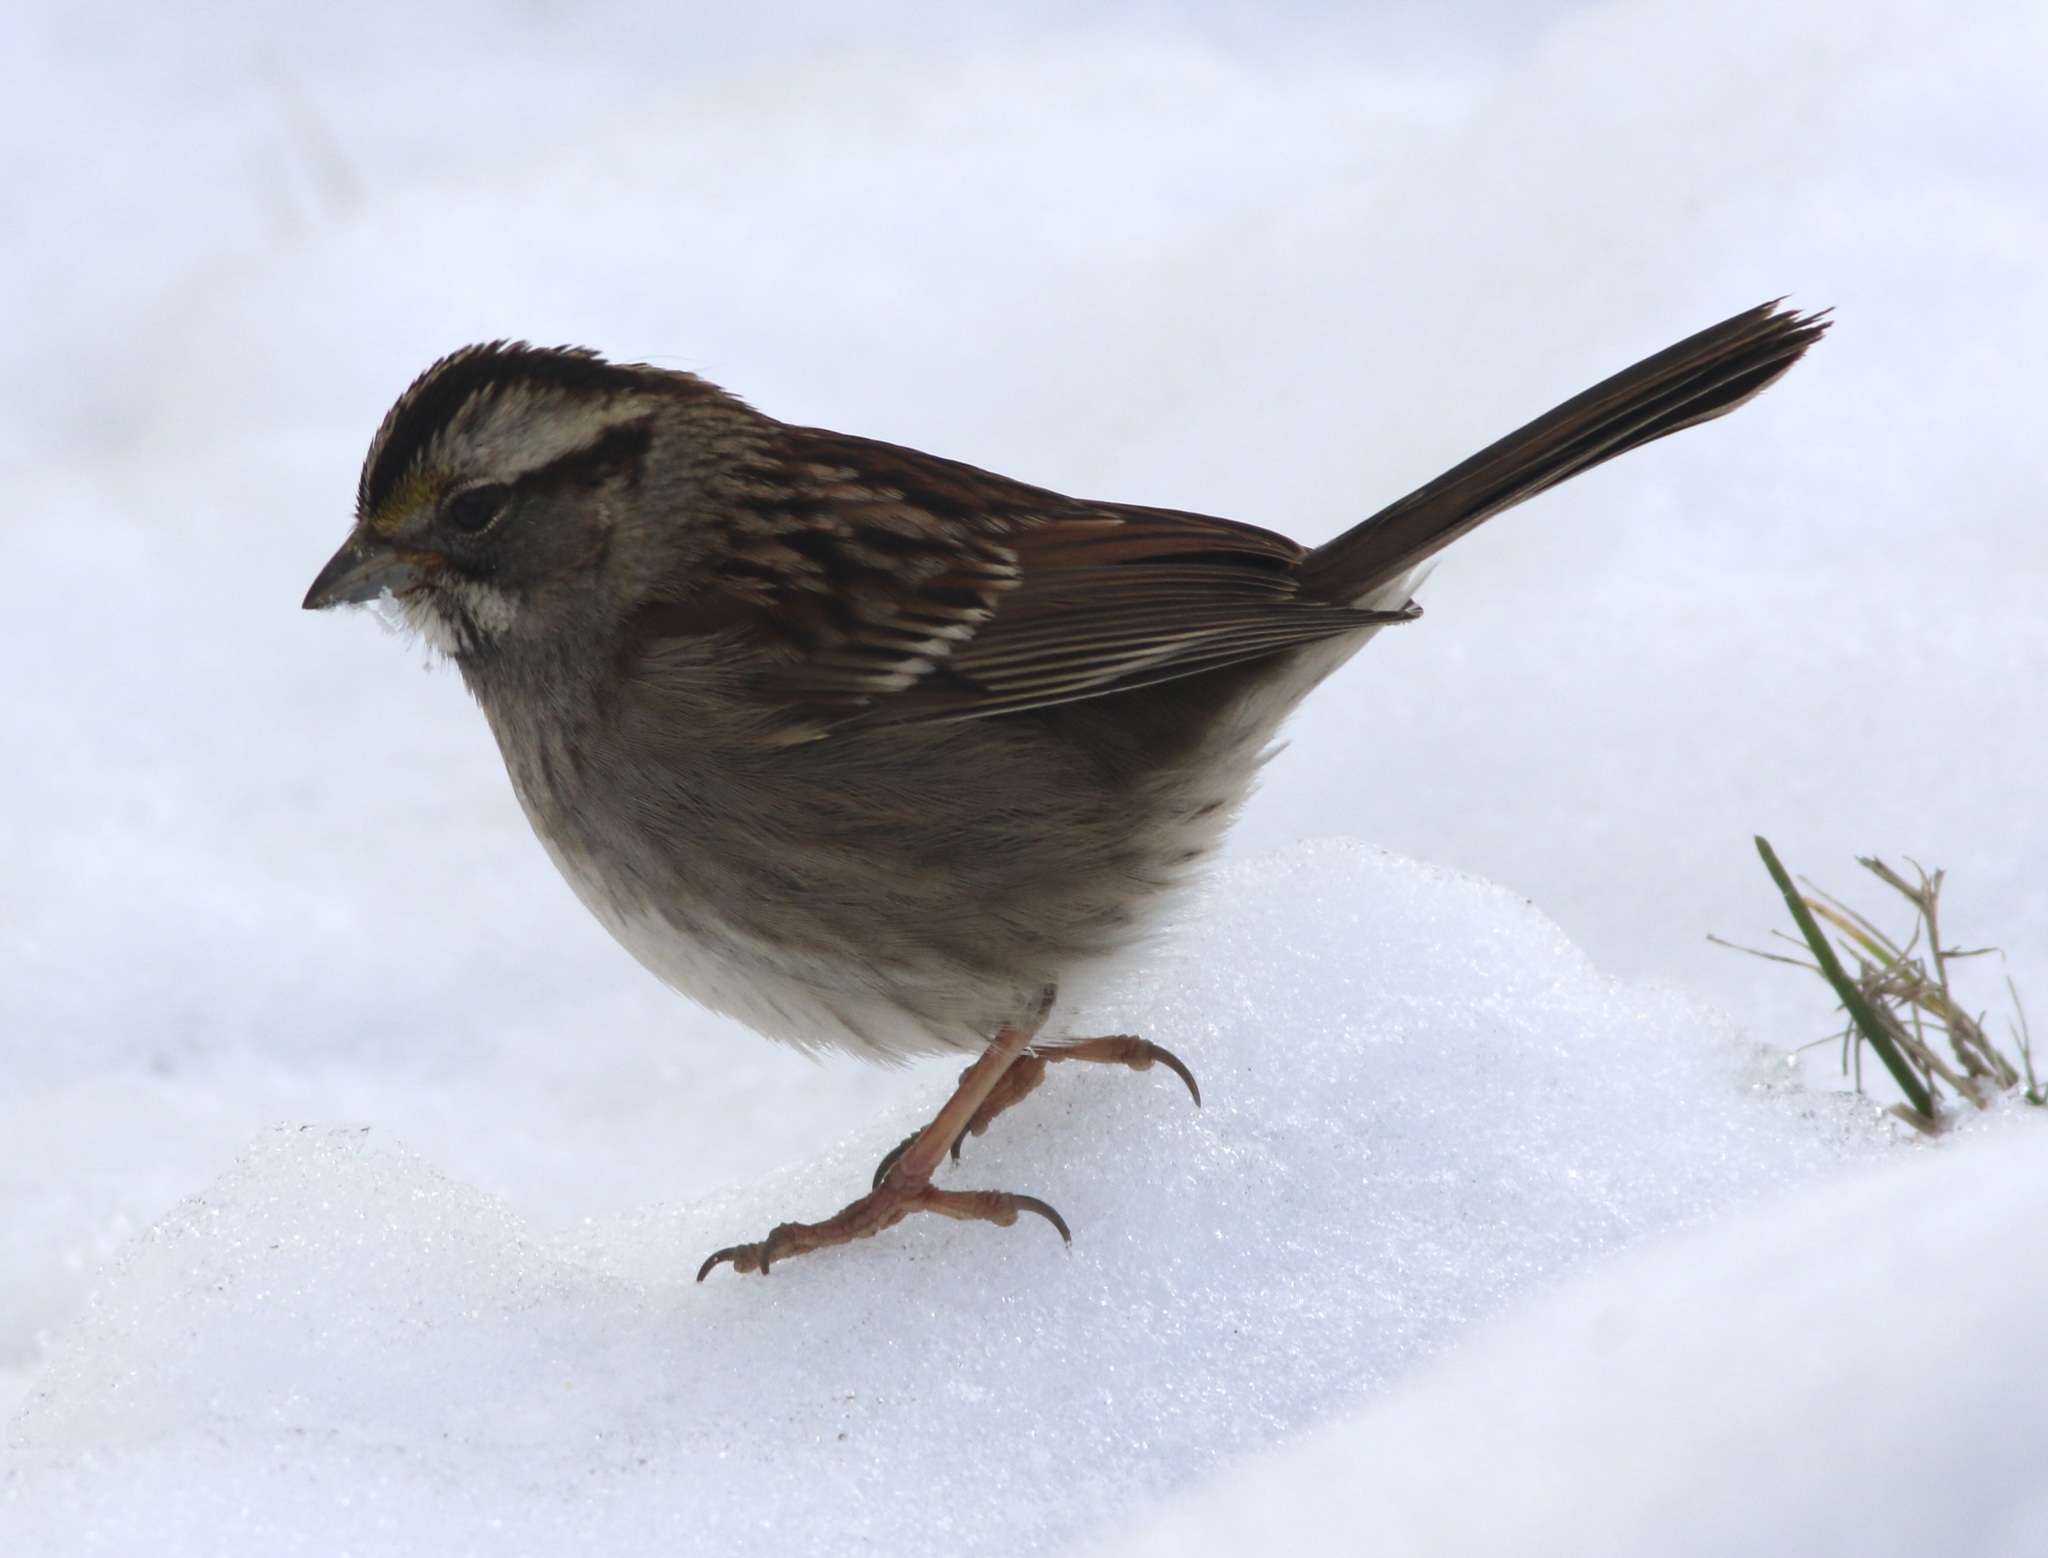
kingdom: Animalia
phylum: Chordata
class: Aves
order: Passeriformes
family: Passerellidae
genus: Zonotrichia
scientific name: Zonotrichia albicollis
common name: White-throated sparrow
